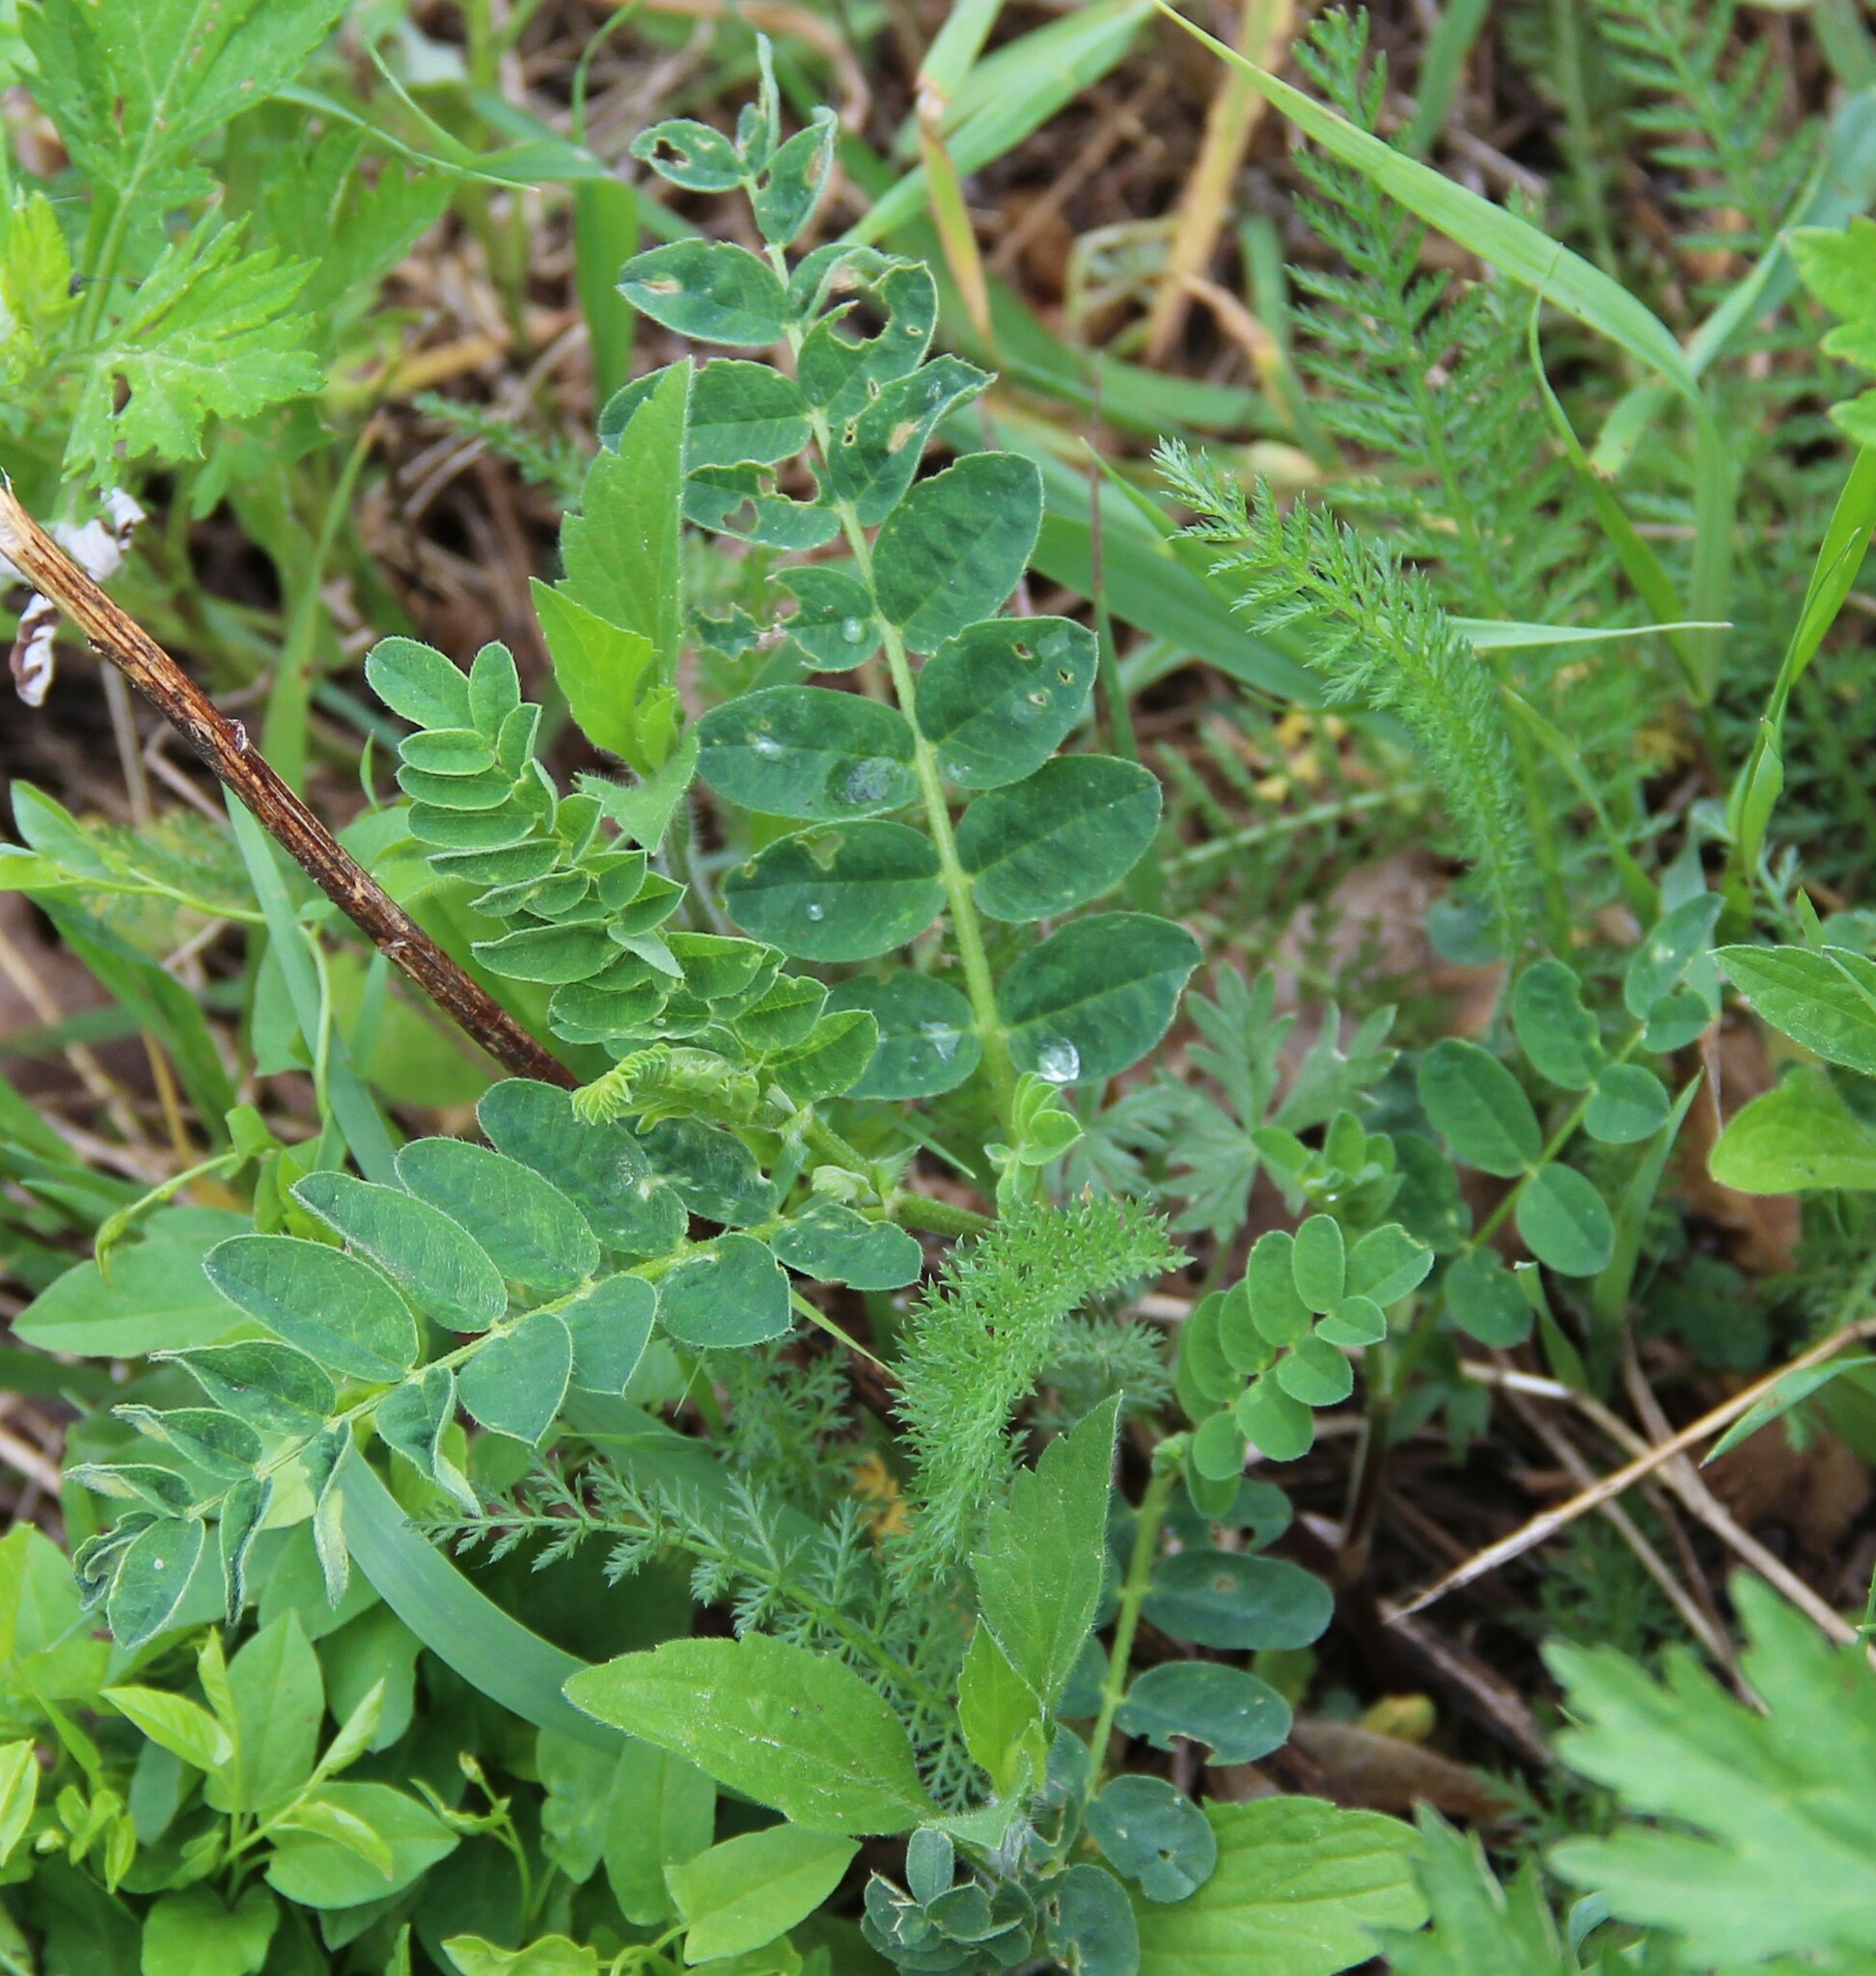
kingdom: Plantae
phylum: Tracheophyta
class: Magnoliopsida
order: Fabales
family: Fabaceae
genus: Astragalus
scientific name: Astragalus cicer
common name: Chick-pea milk-vetch
